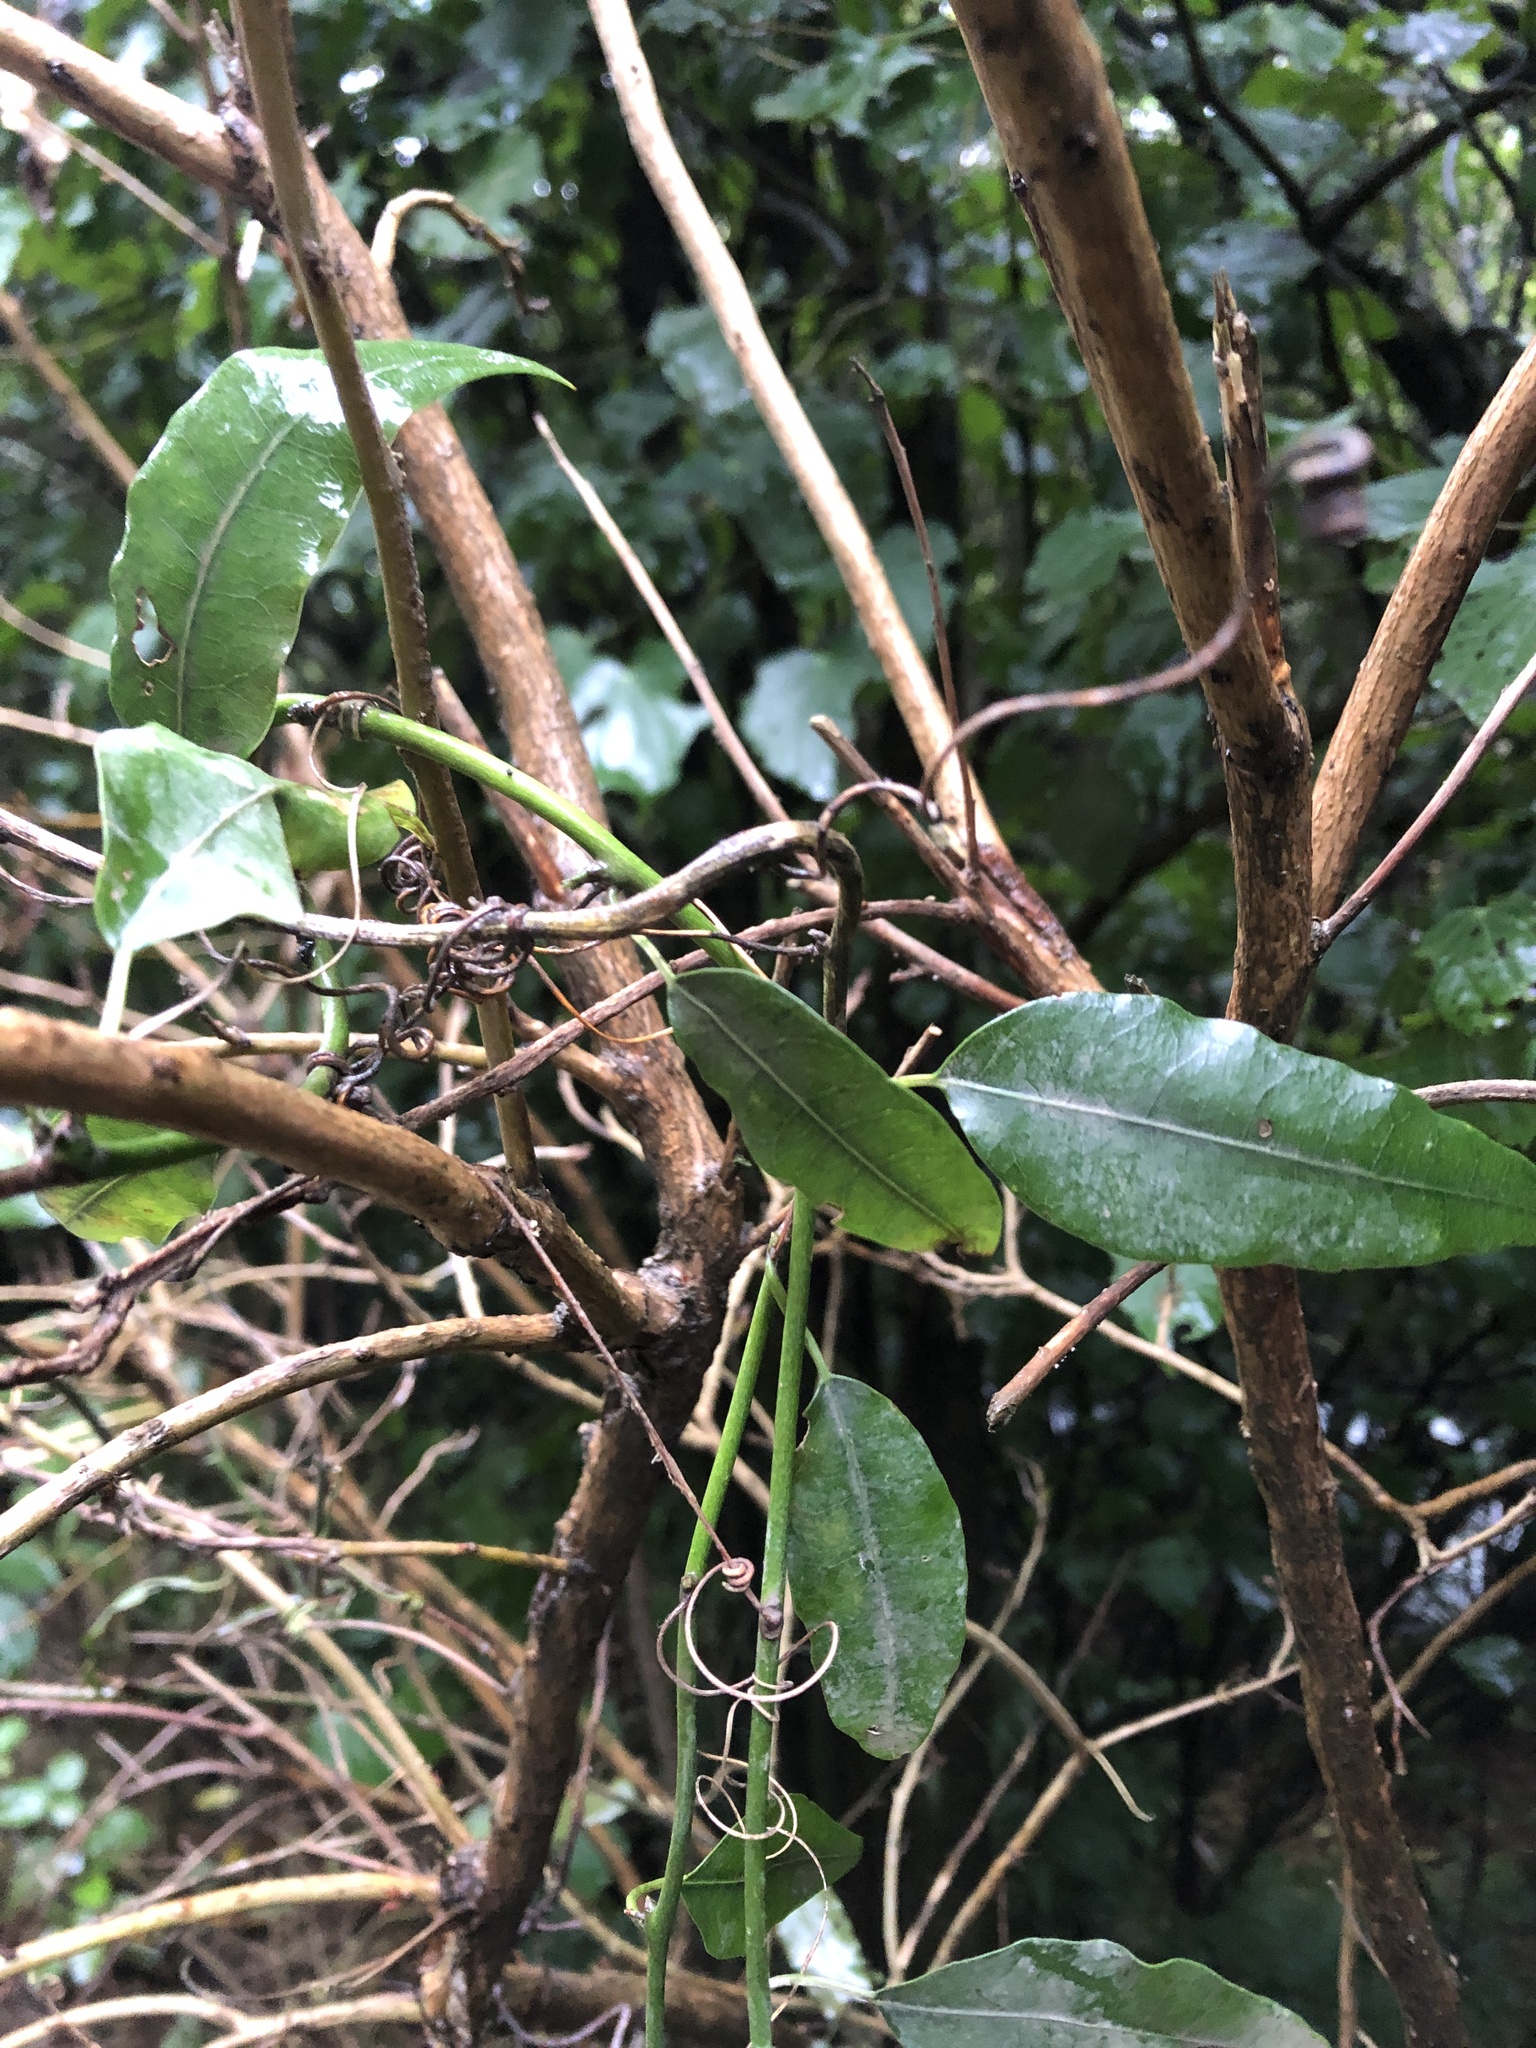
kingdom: Plantae
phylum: Tracheophyta
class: Magnoliopsida
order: Malpighiales
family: Passifloraceae
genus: Passiflora
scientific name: Passiflora tetrandra
